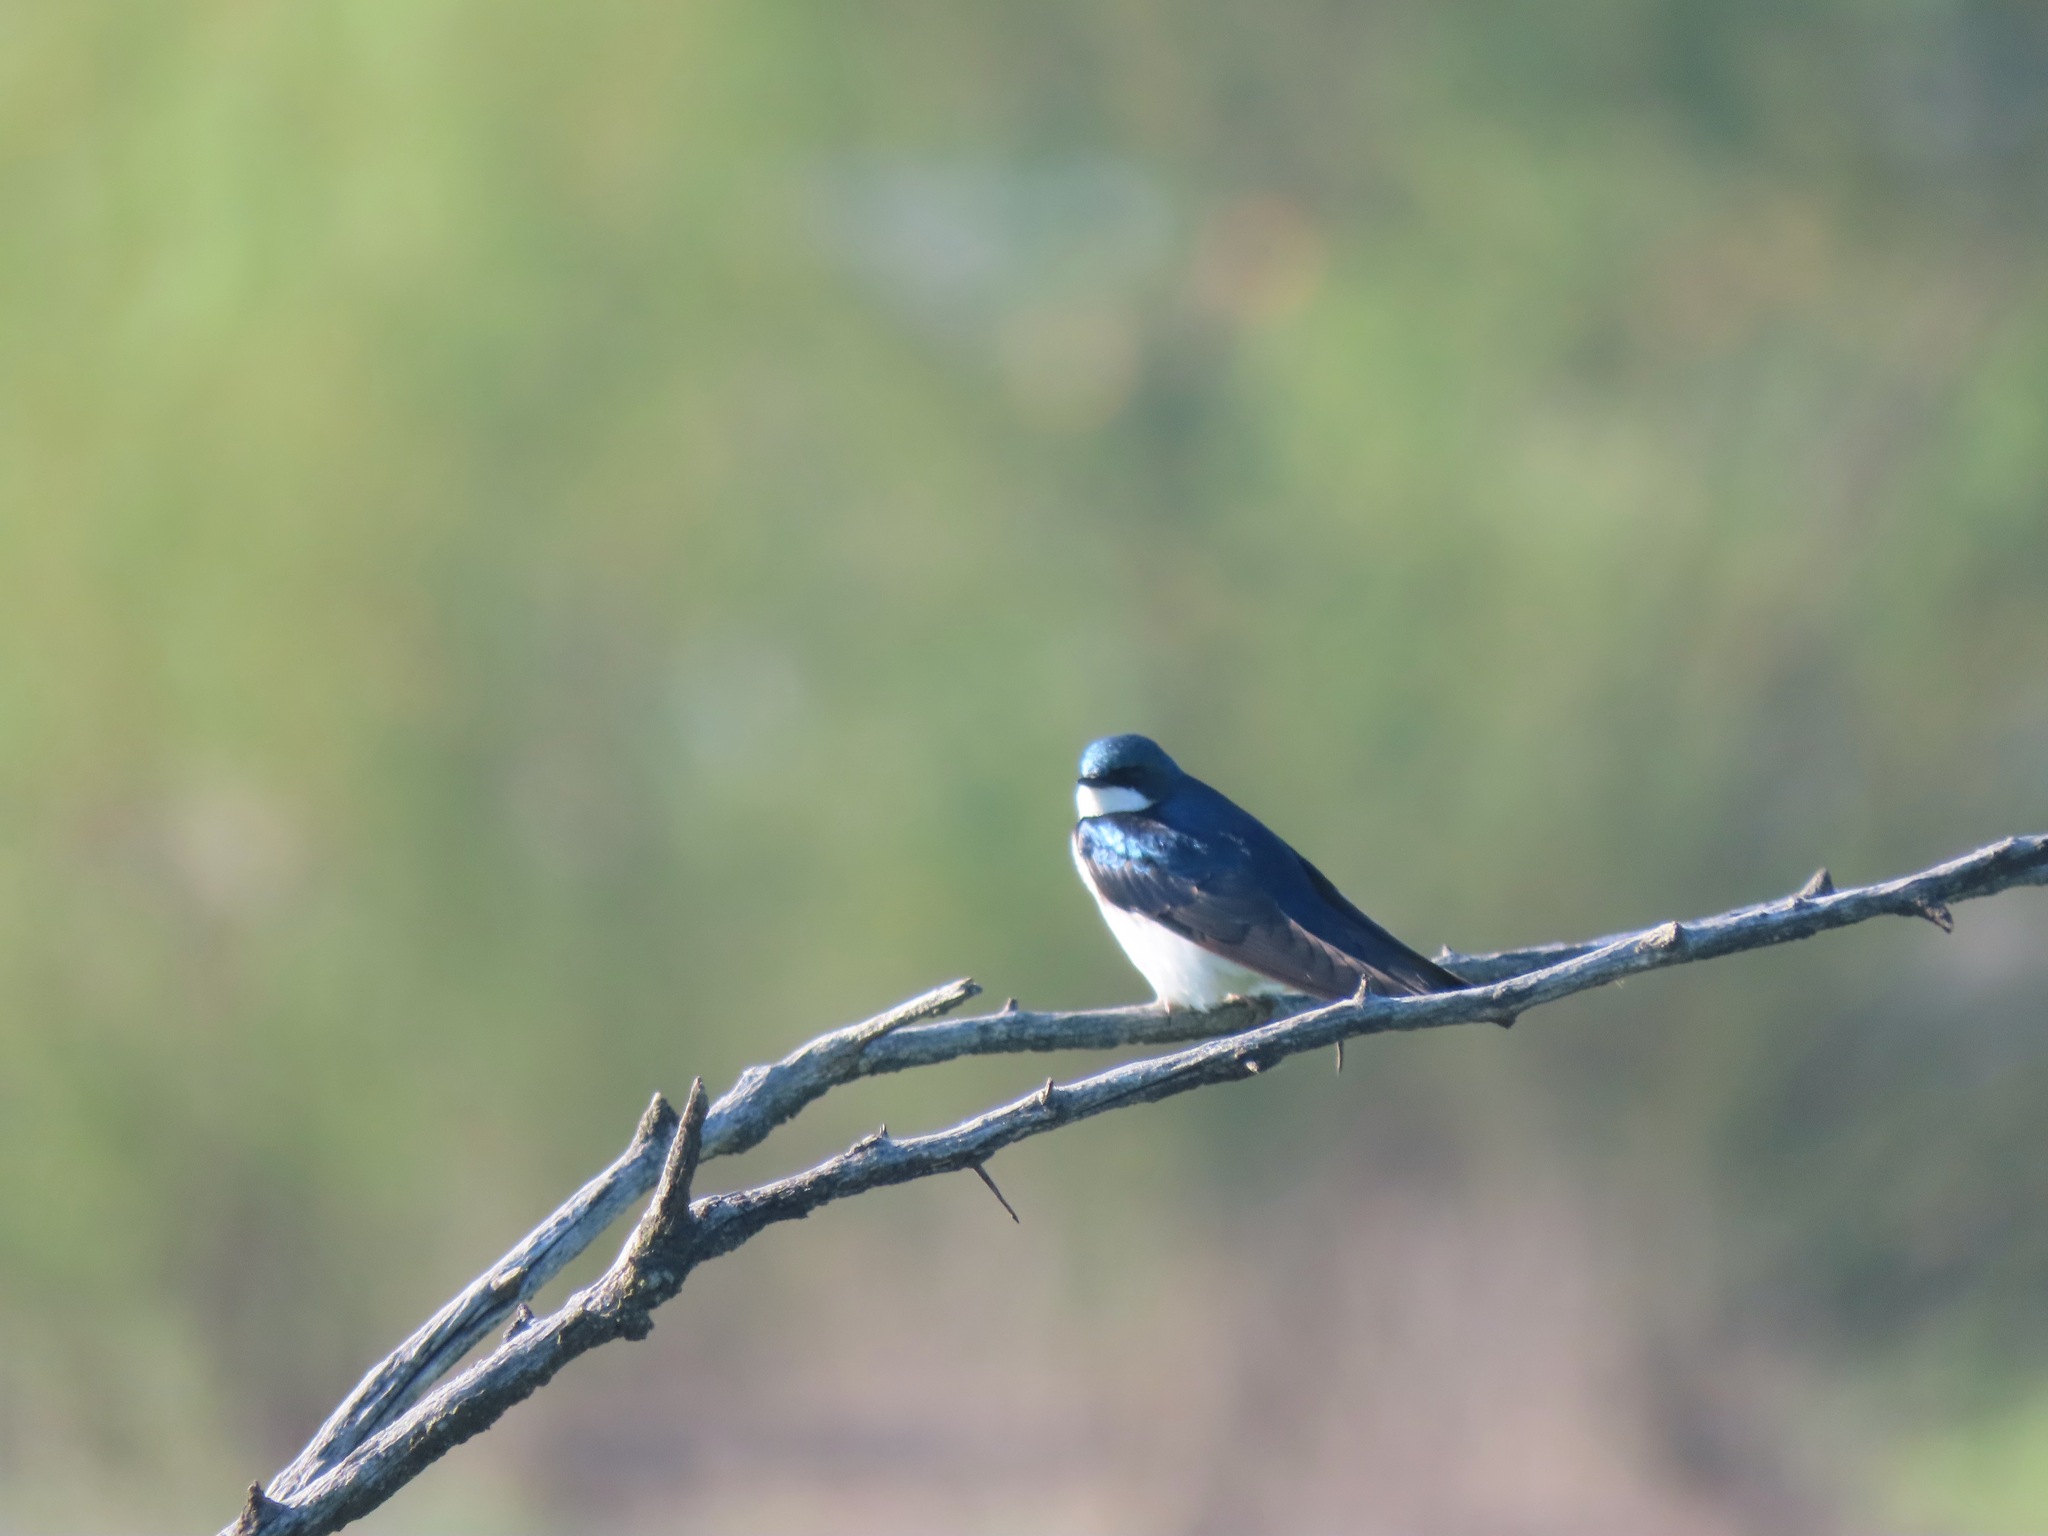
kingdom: Animalia
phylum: Chordata
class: Aves
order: Passeriformes
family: Hirundinidae
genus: Tachycineta
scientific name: Tachycineta bicolor
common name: Tree swallow
